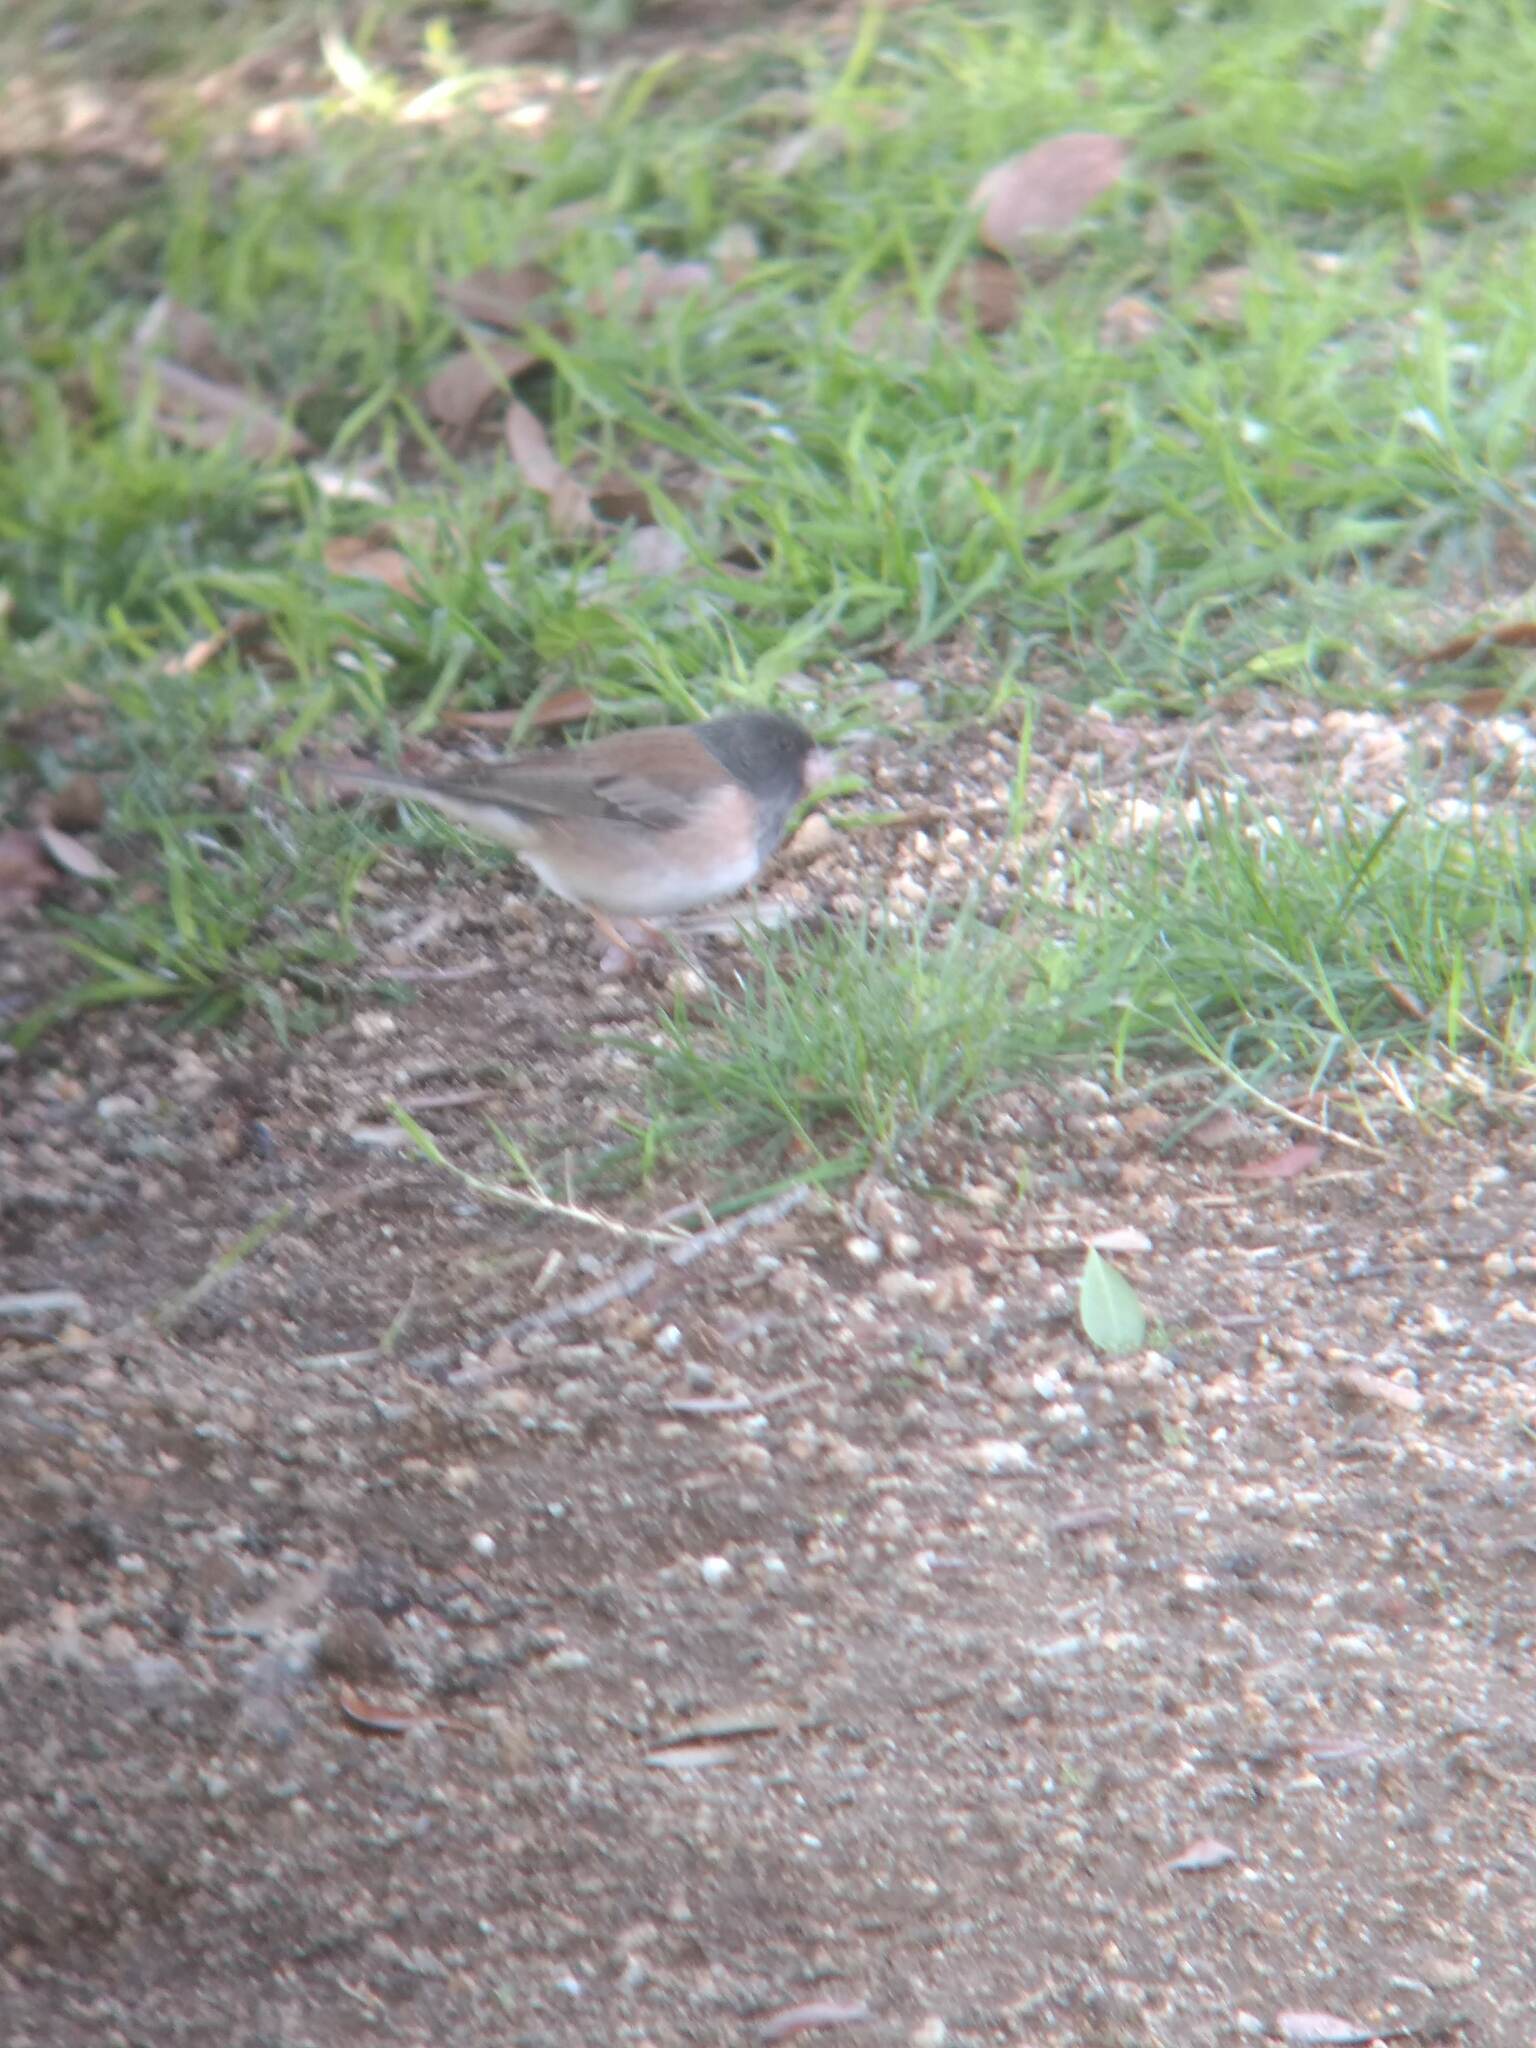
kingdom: Animalia
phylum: Chordata
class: Aves
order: Passeriformes
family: Passerellidae
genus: Junco
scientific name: Junco hyemalis
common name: Dark-eyed junco
